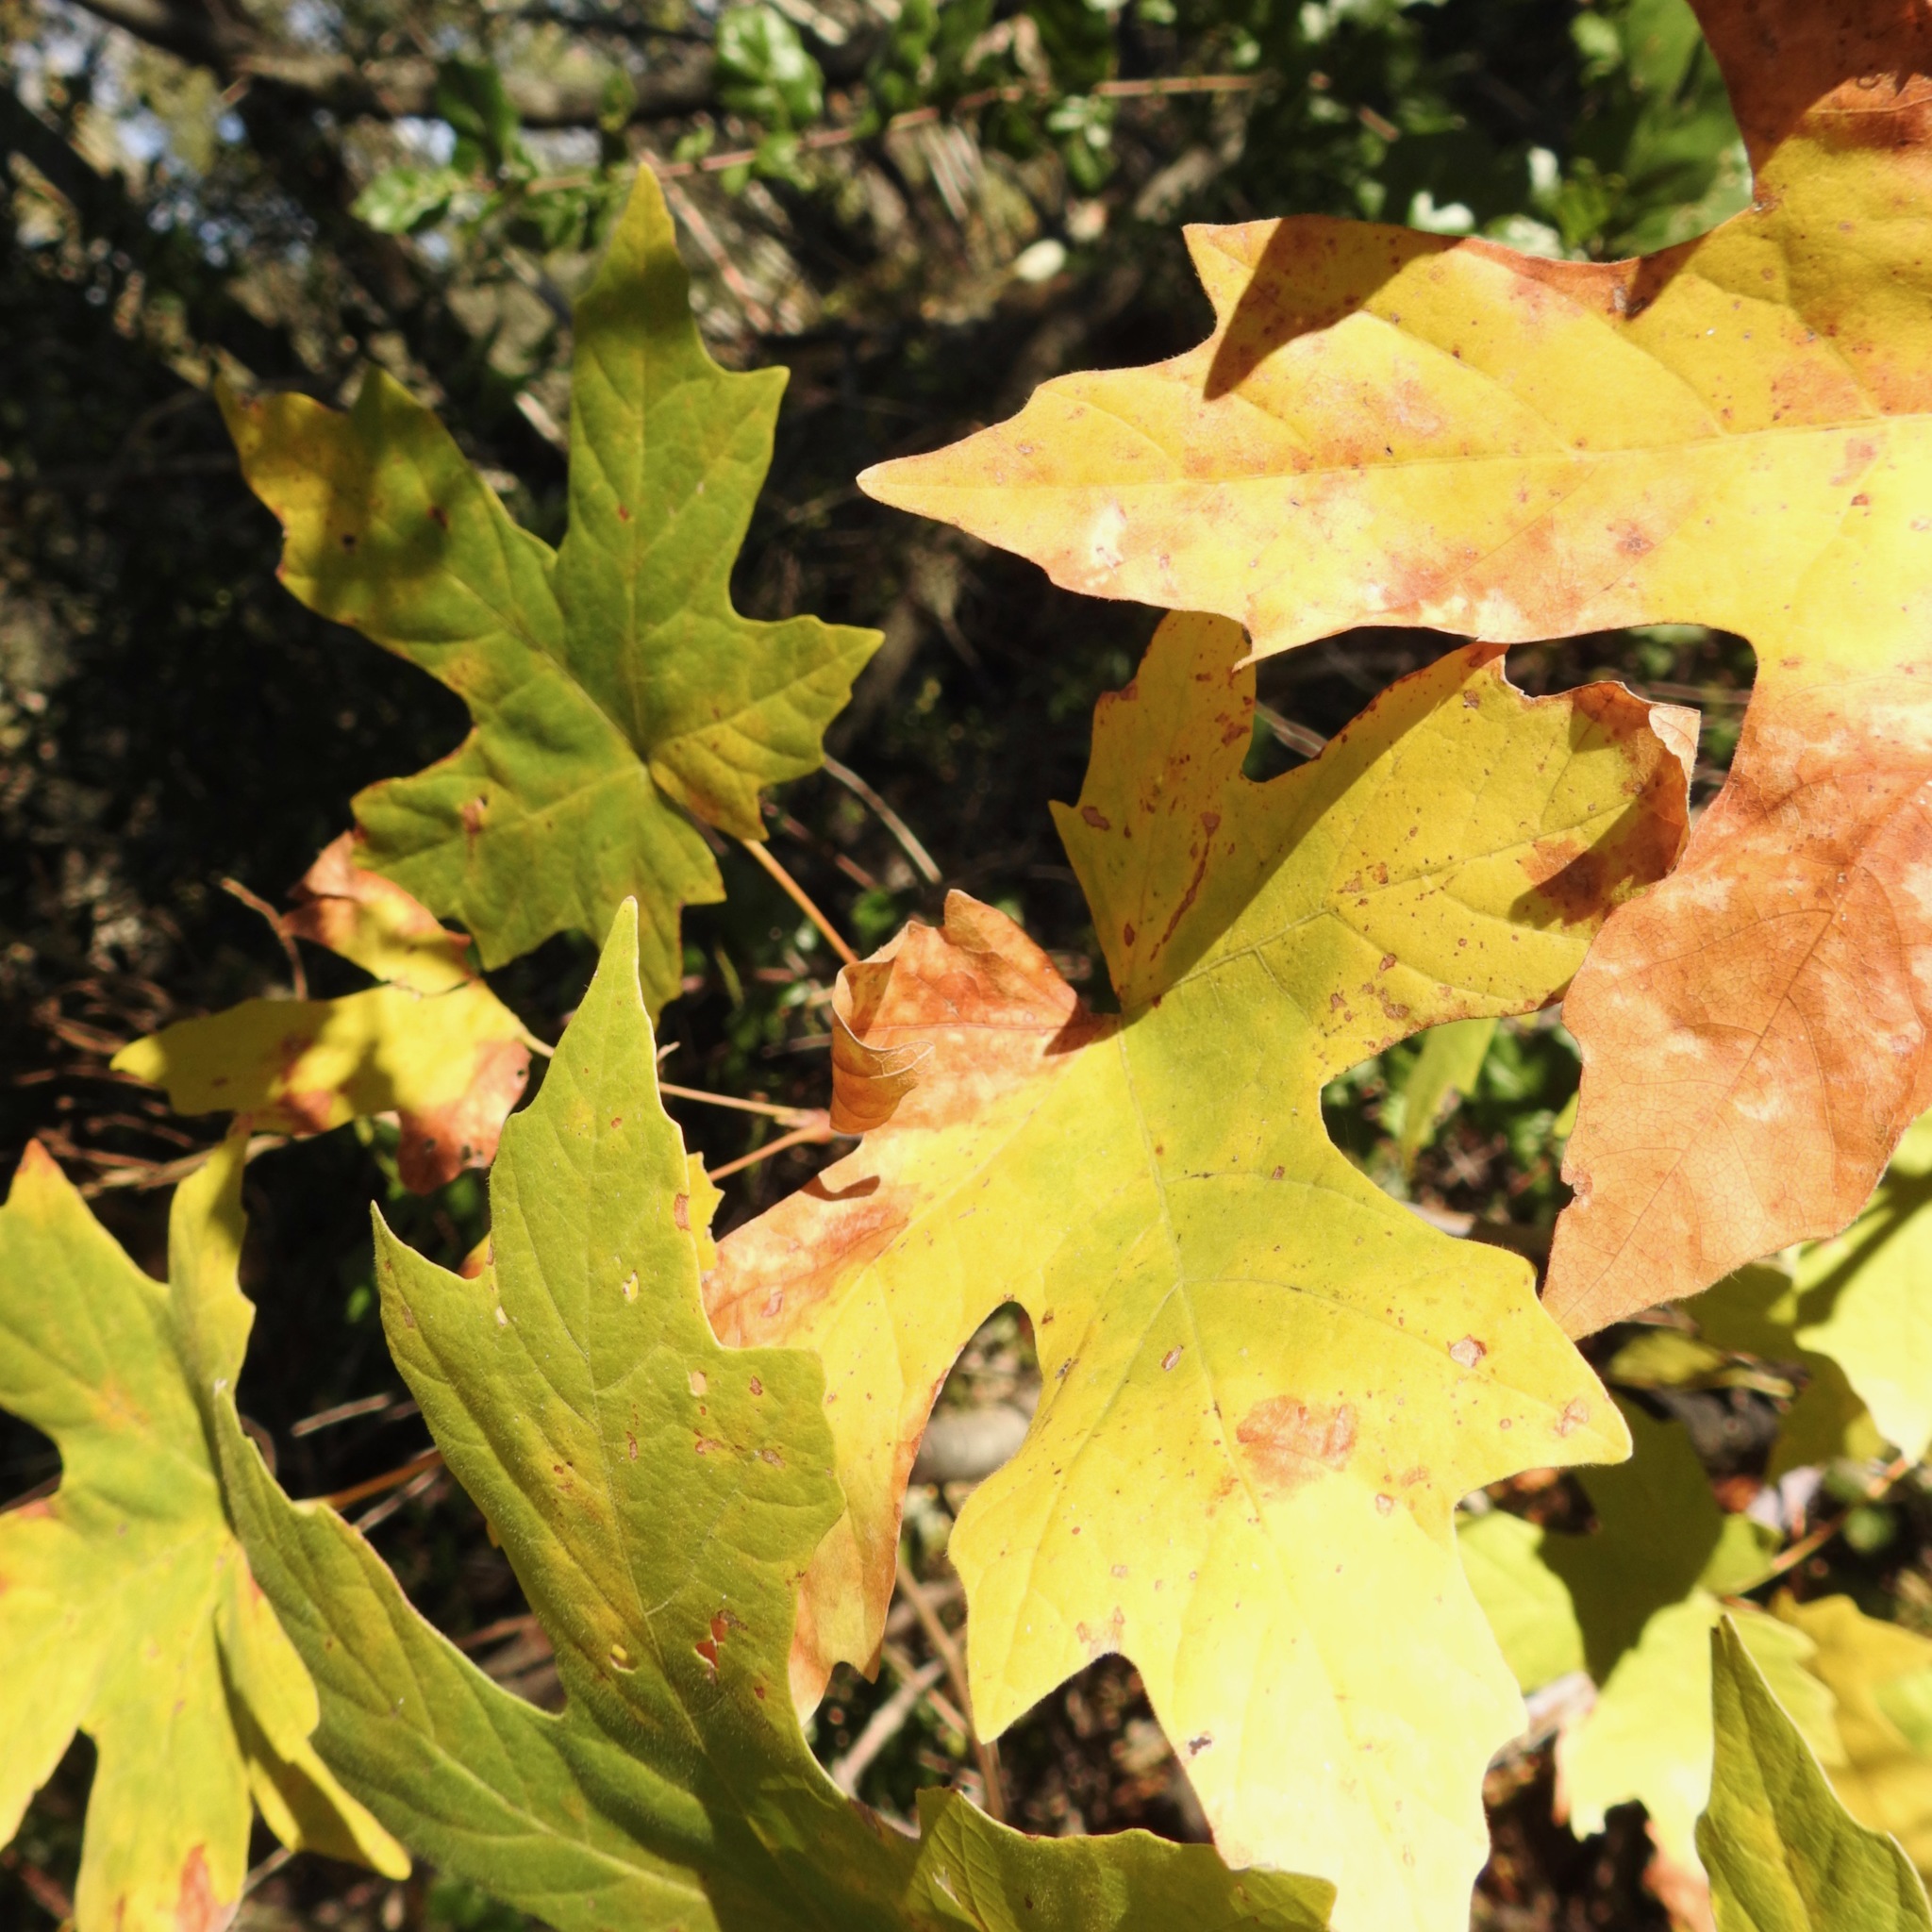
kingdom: Plantae
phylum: Tracheophyta
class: Magnoliopsida
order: Sapindales
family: Sapindaceae
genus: Acer
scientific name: Acer macrophyllum
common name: Oregon maple
